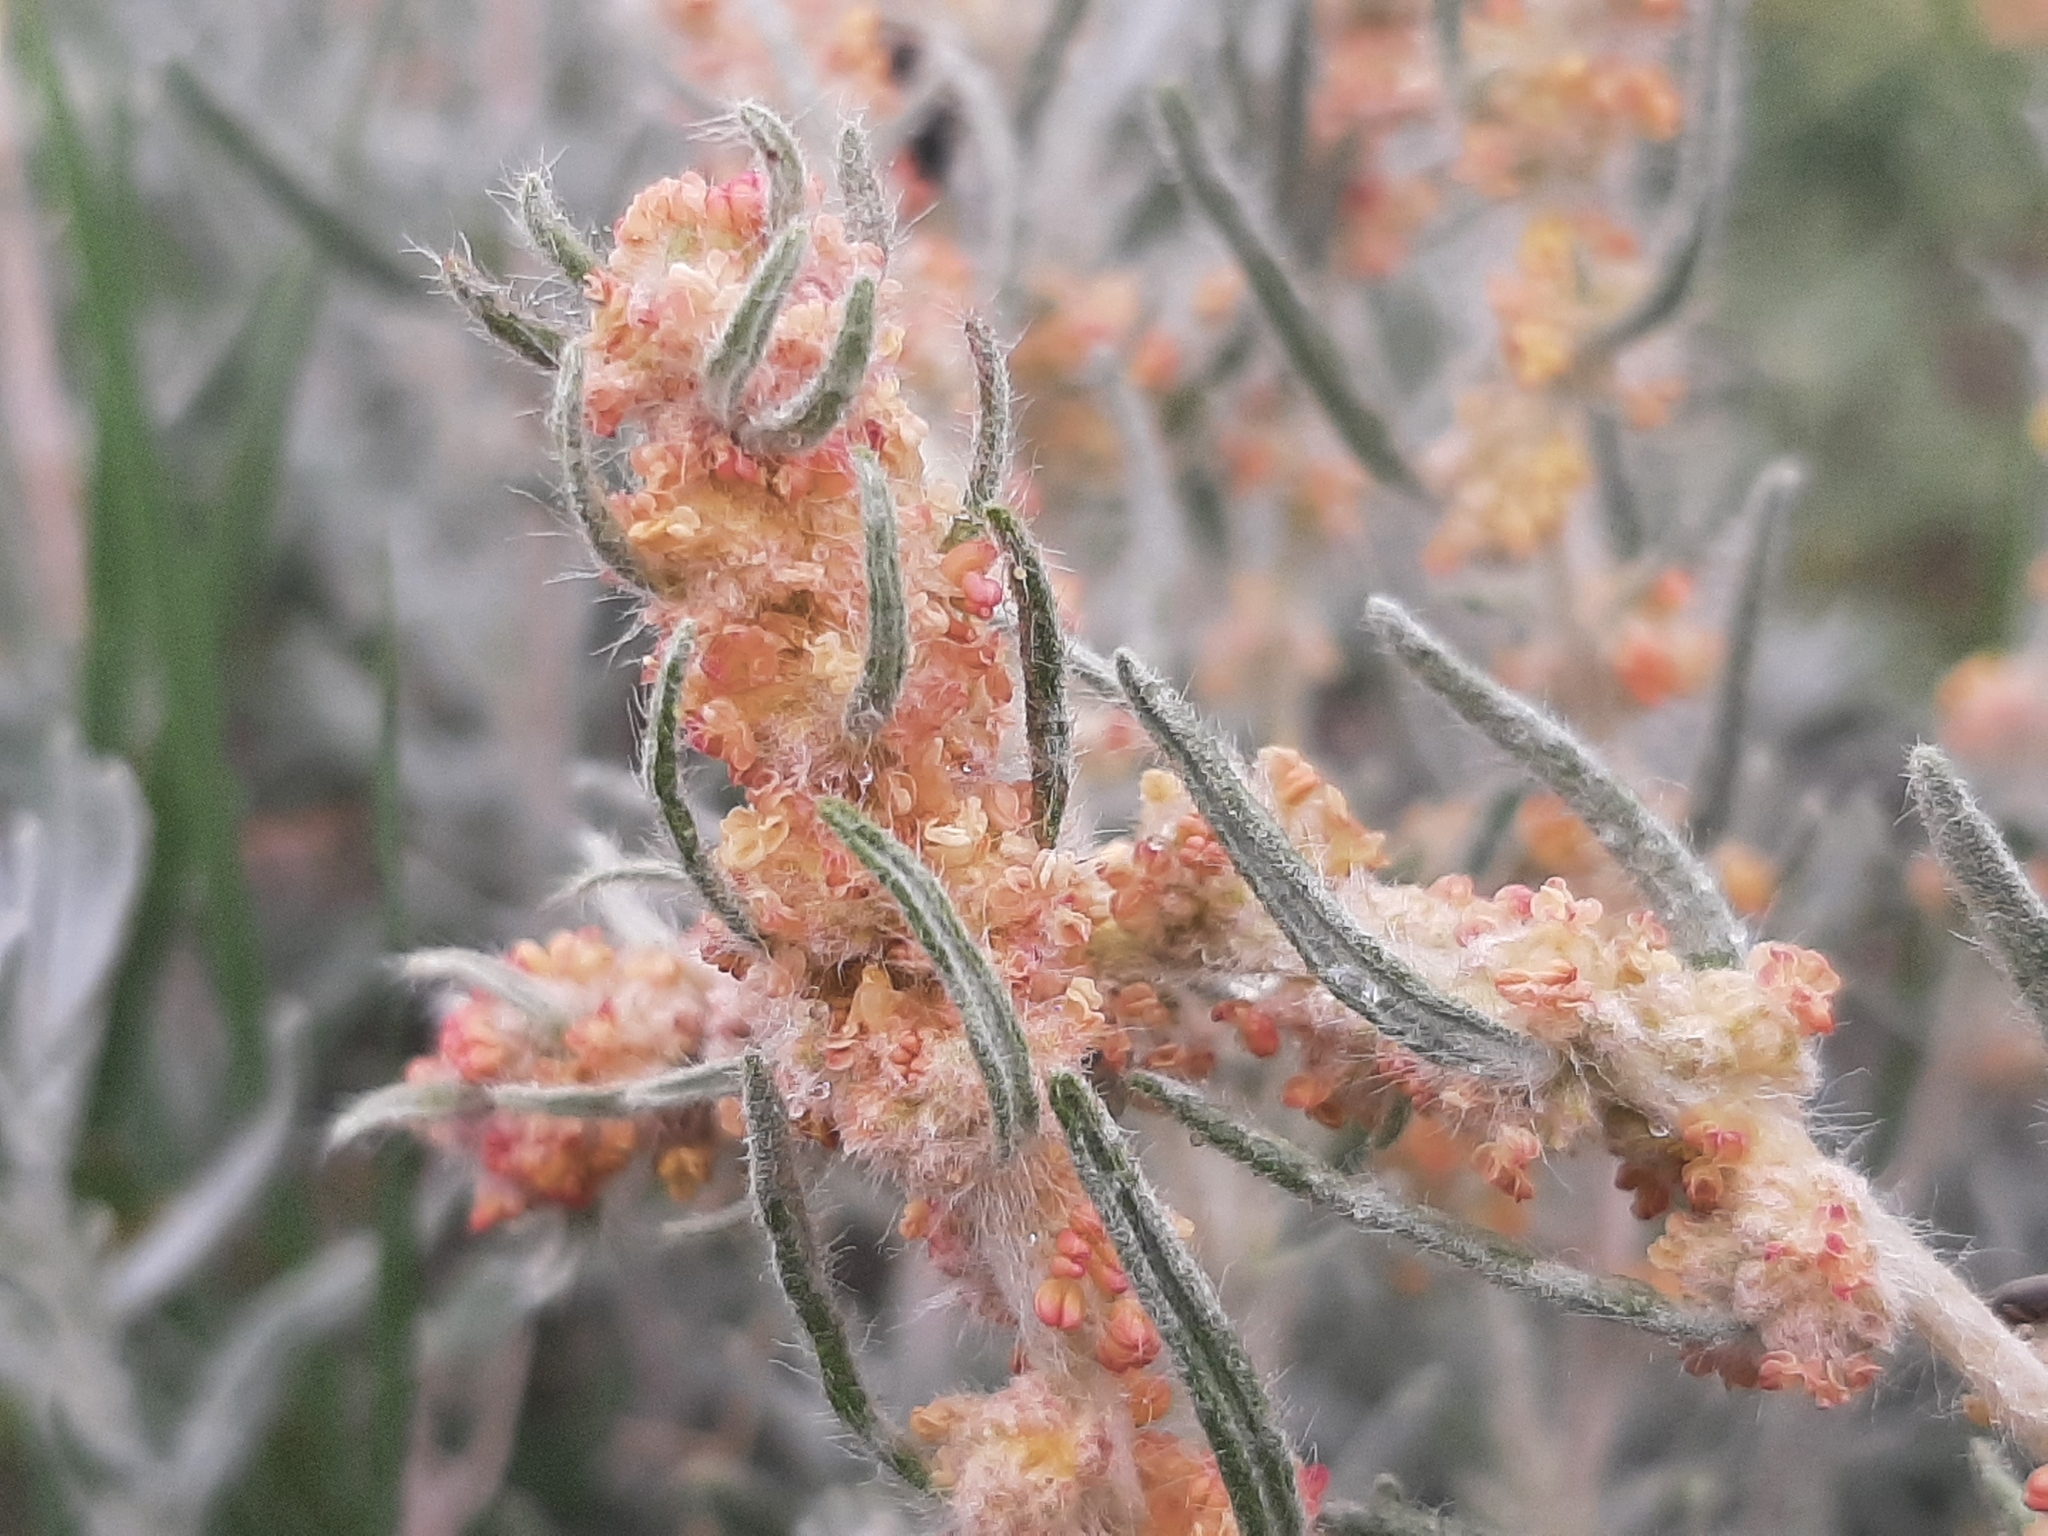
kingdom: Plantae
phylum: Tracheophyta
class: Magnoliopsida
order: Caryophyllales
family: Amaranthaceae
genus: Krascheninnikovia
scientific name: Krascheninnikovia lanata
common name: Winterfat
